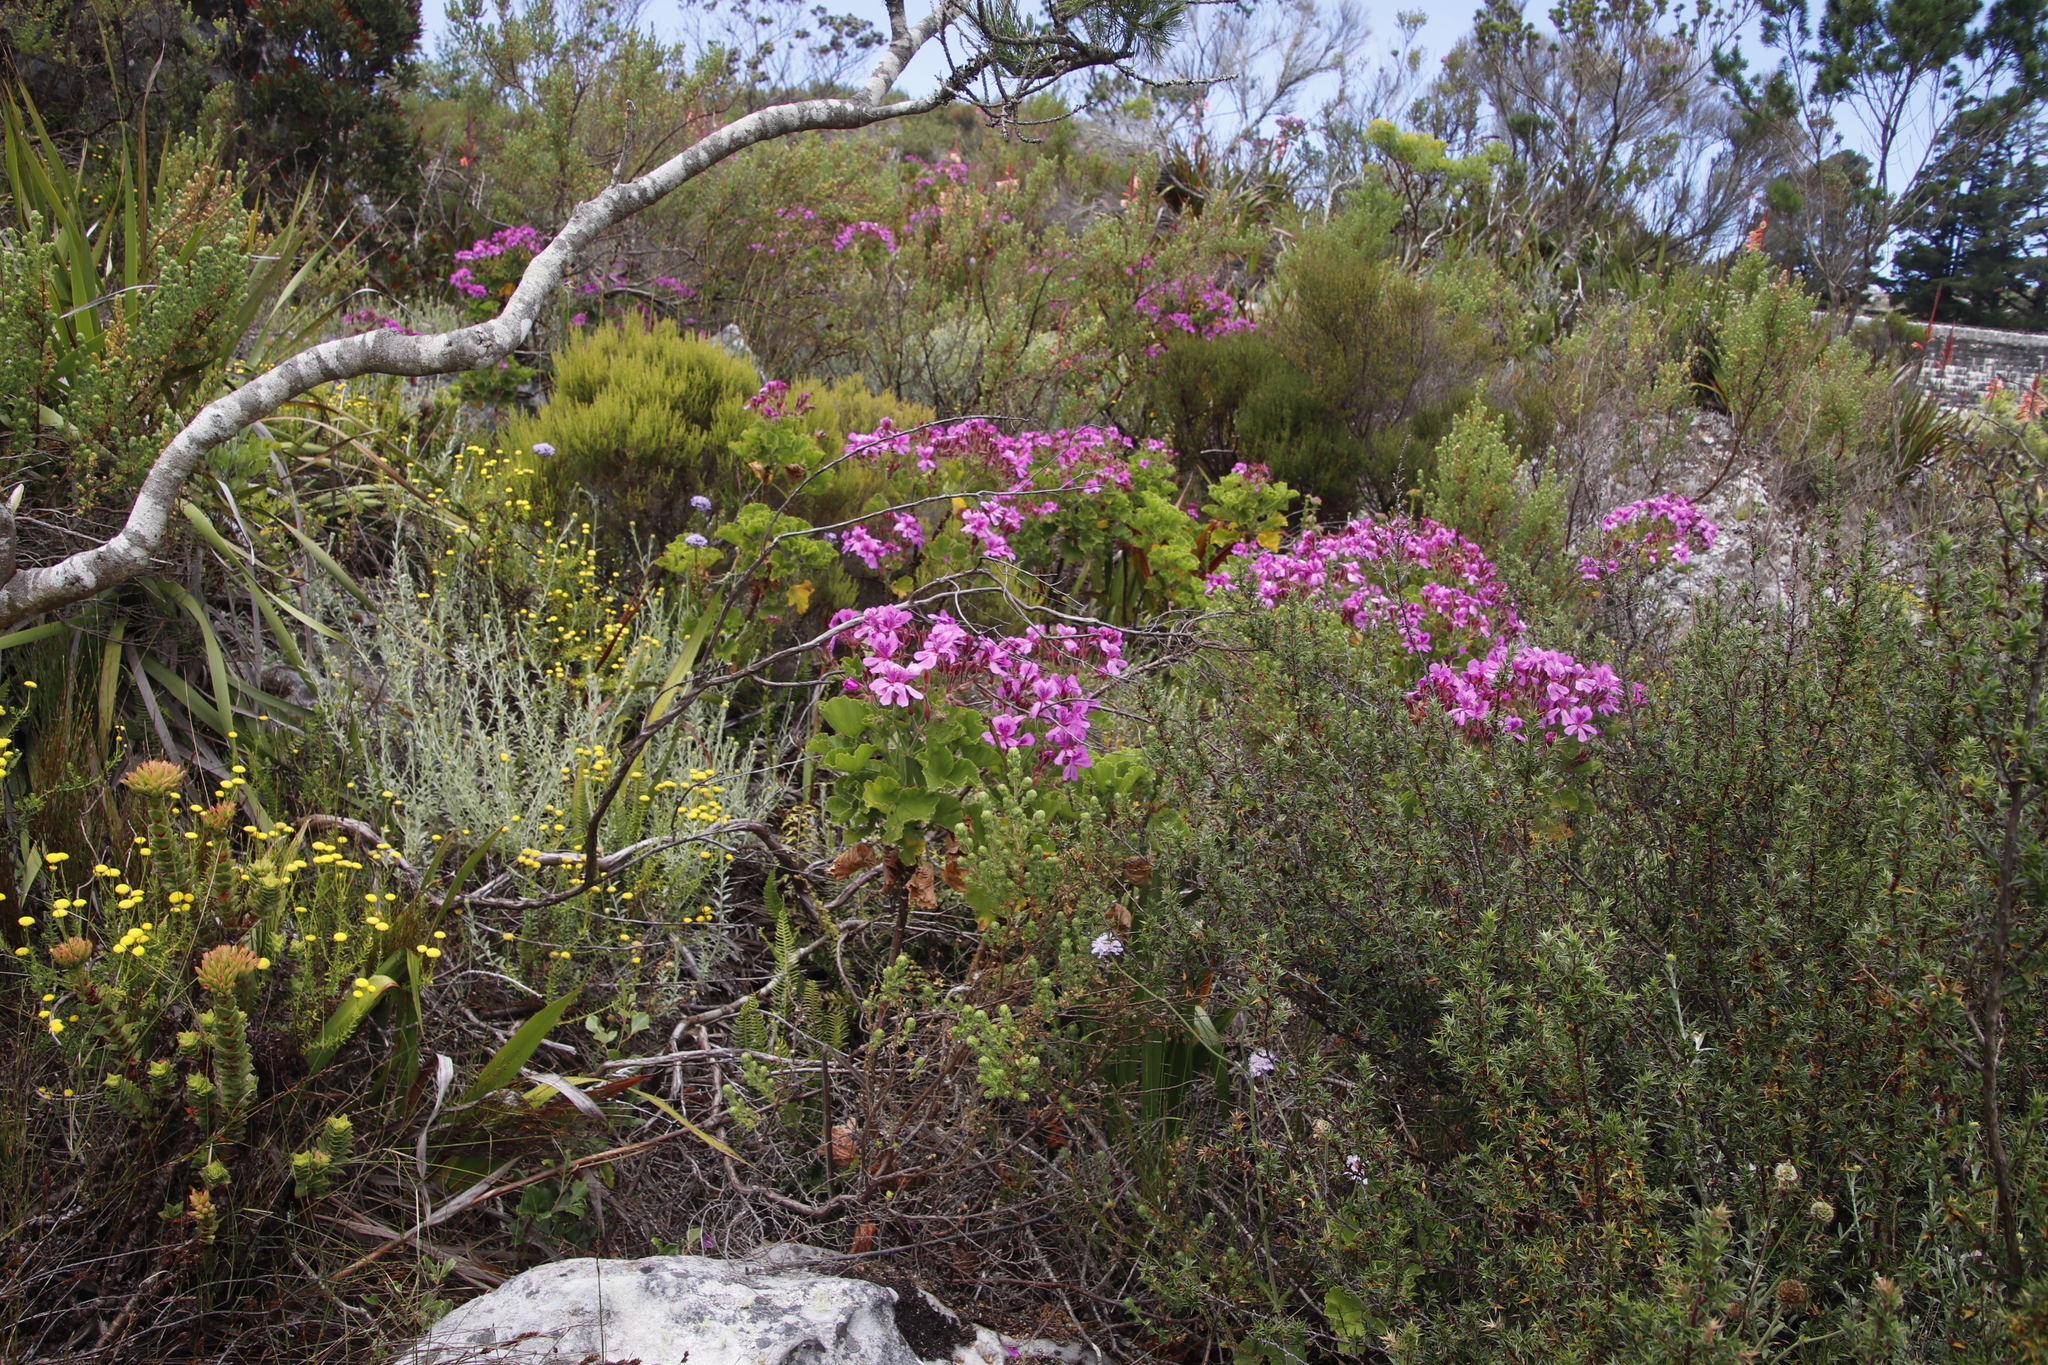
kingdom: Plantae
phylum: Tracheophyta
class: Magnoliopsida
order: Geraniales
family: Geraniaceae
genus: Pelargonium
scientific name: Pelargonium cucullatum
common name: Tree pelargonium
